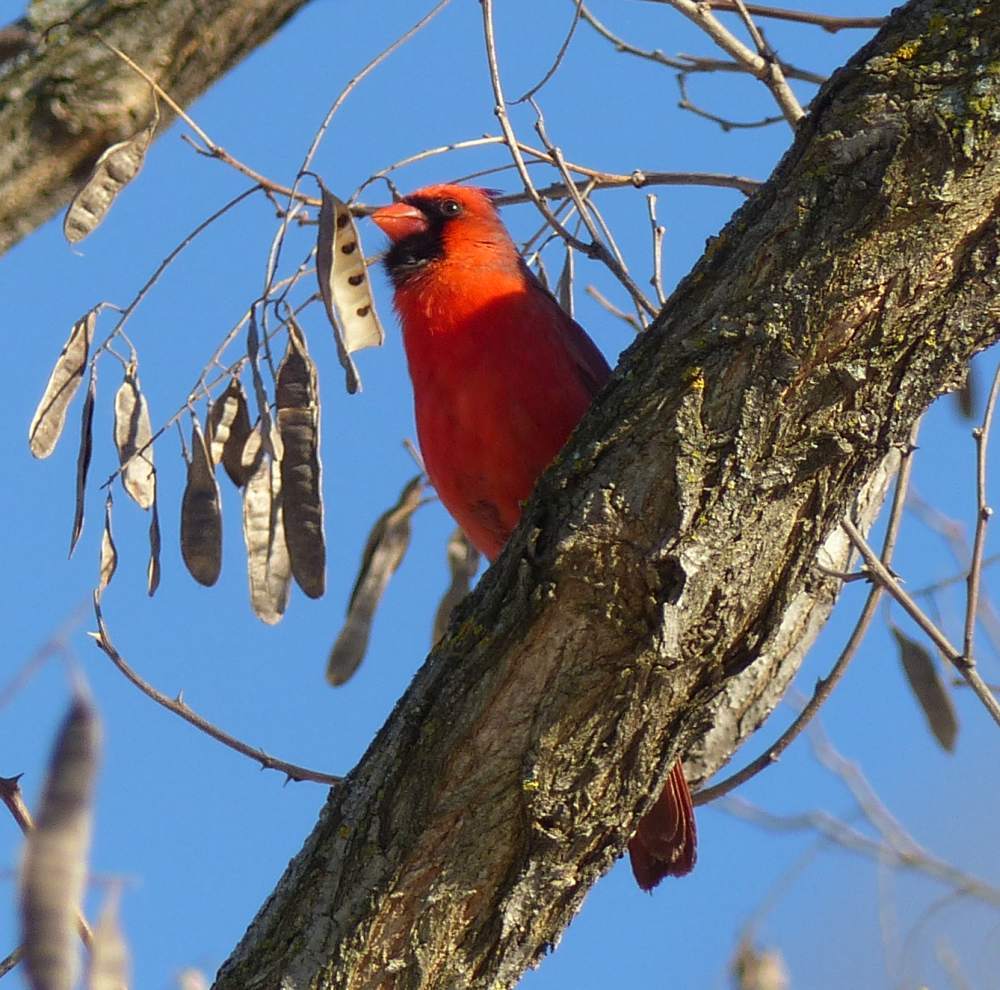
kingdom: Animalia
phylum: Chordata
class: Aves
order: Passeriformes
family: Cardinalidae
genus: Cardinalis
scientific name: Cardinalis cardinalis
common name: Northern cardinal
